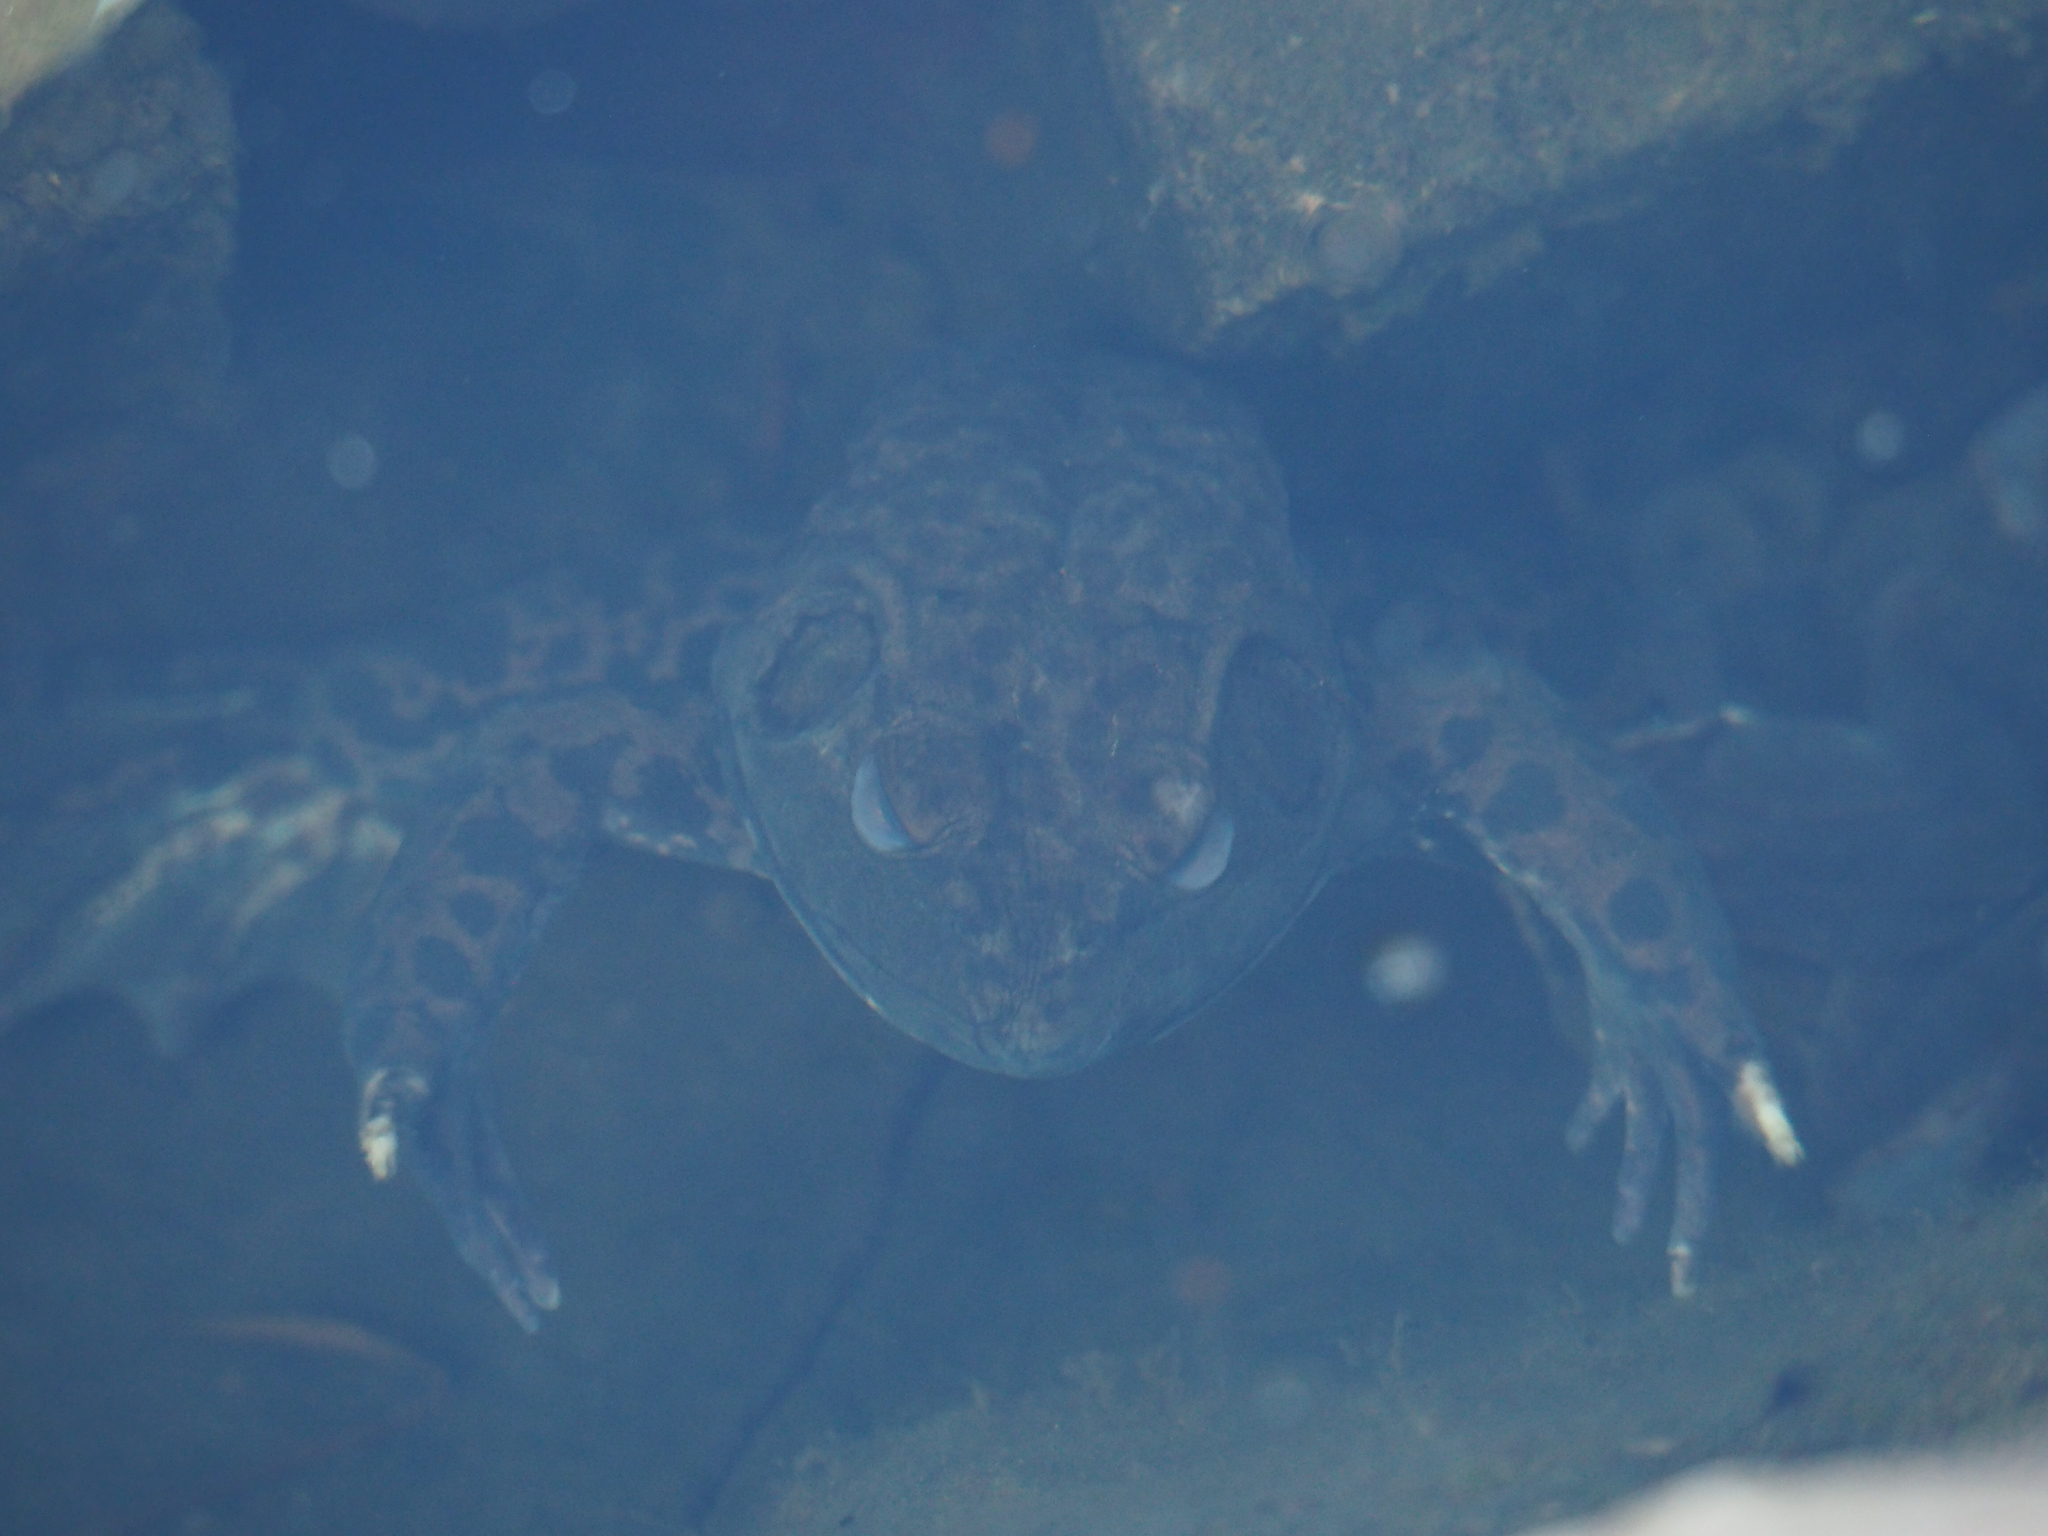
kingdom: Animalia
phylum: Chordata
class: Amphibia
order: Anura
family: Ranidae
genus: Lithobates
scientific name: Lithobates catesbeianus
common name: American bullfrog
